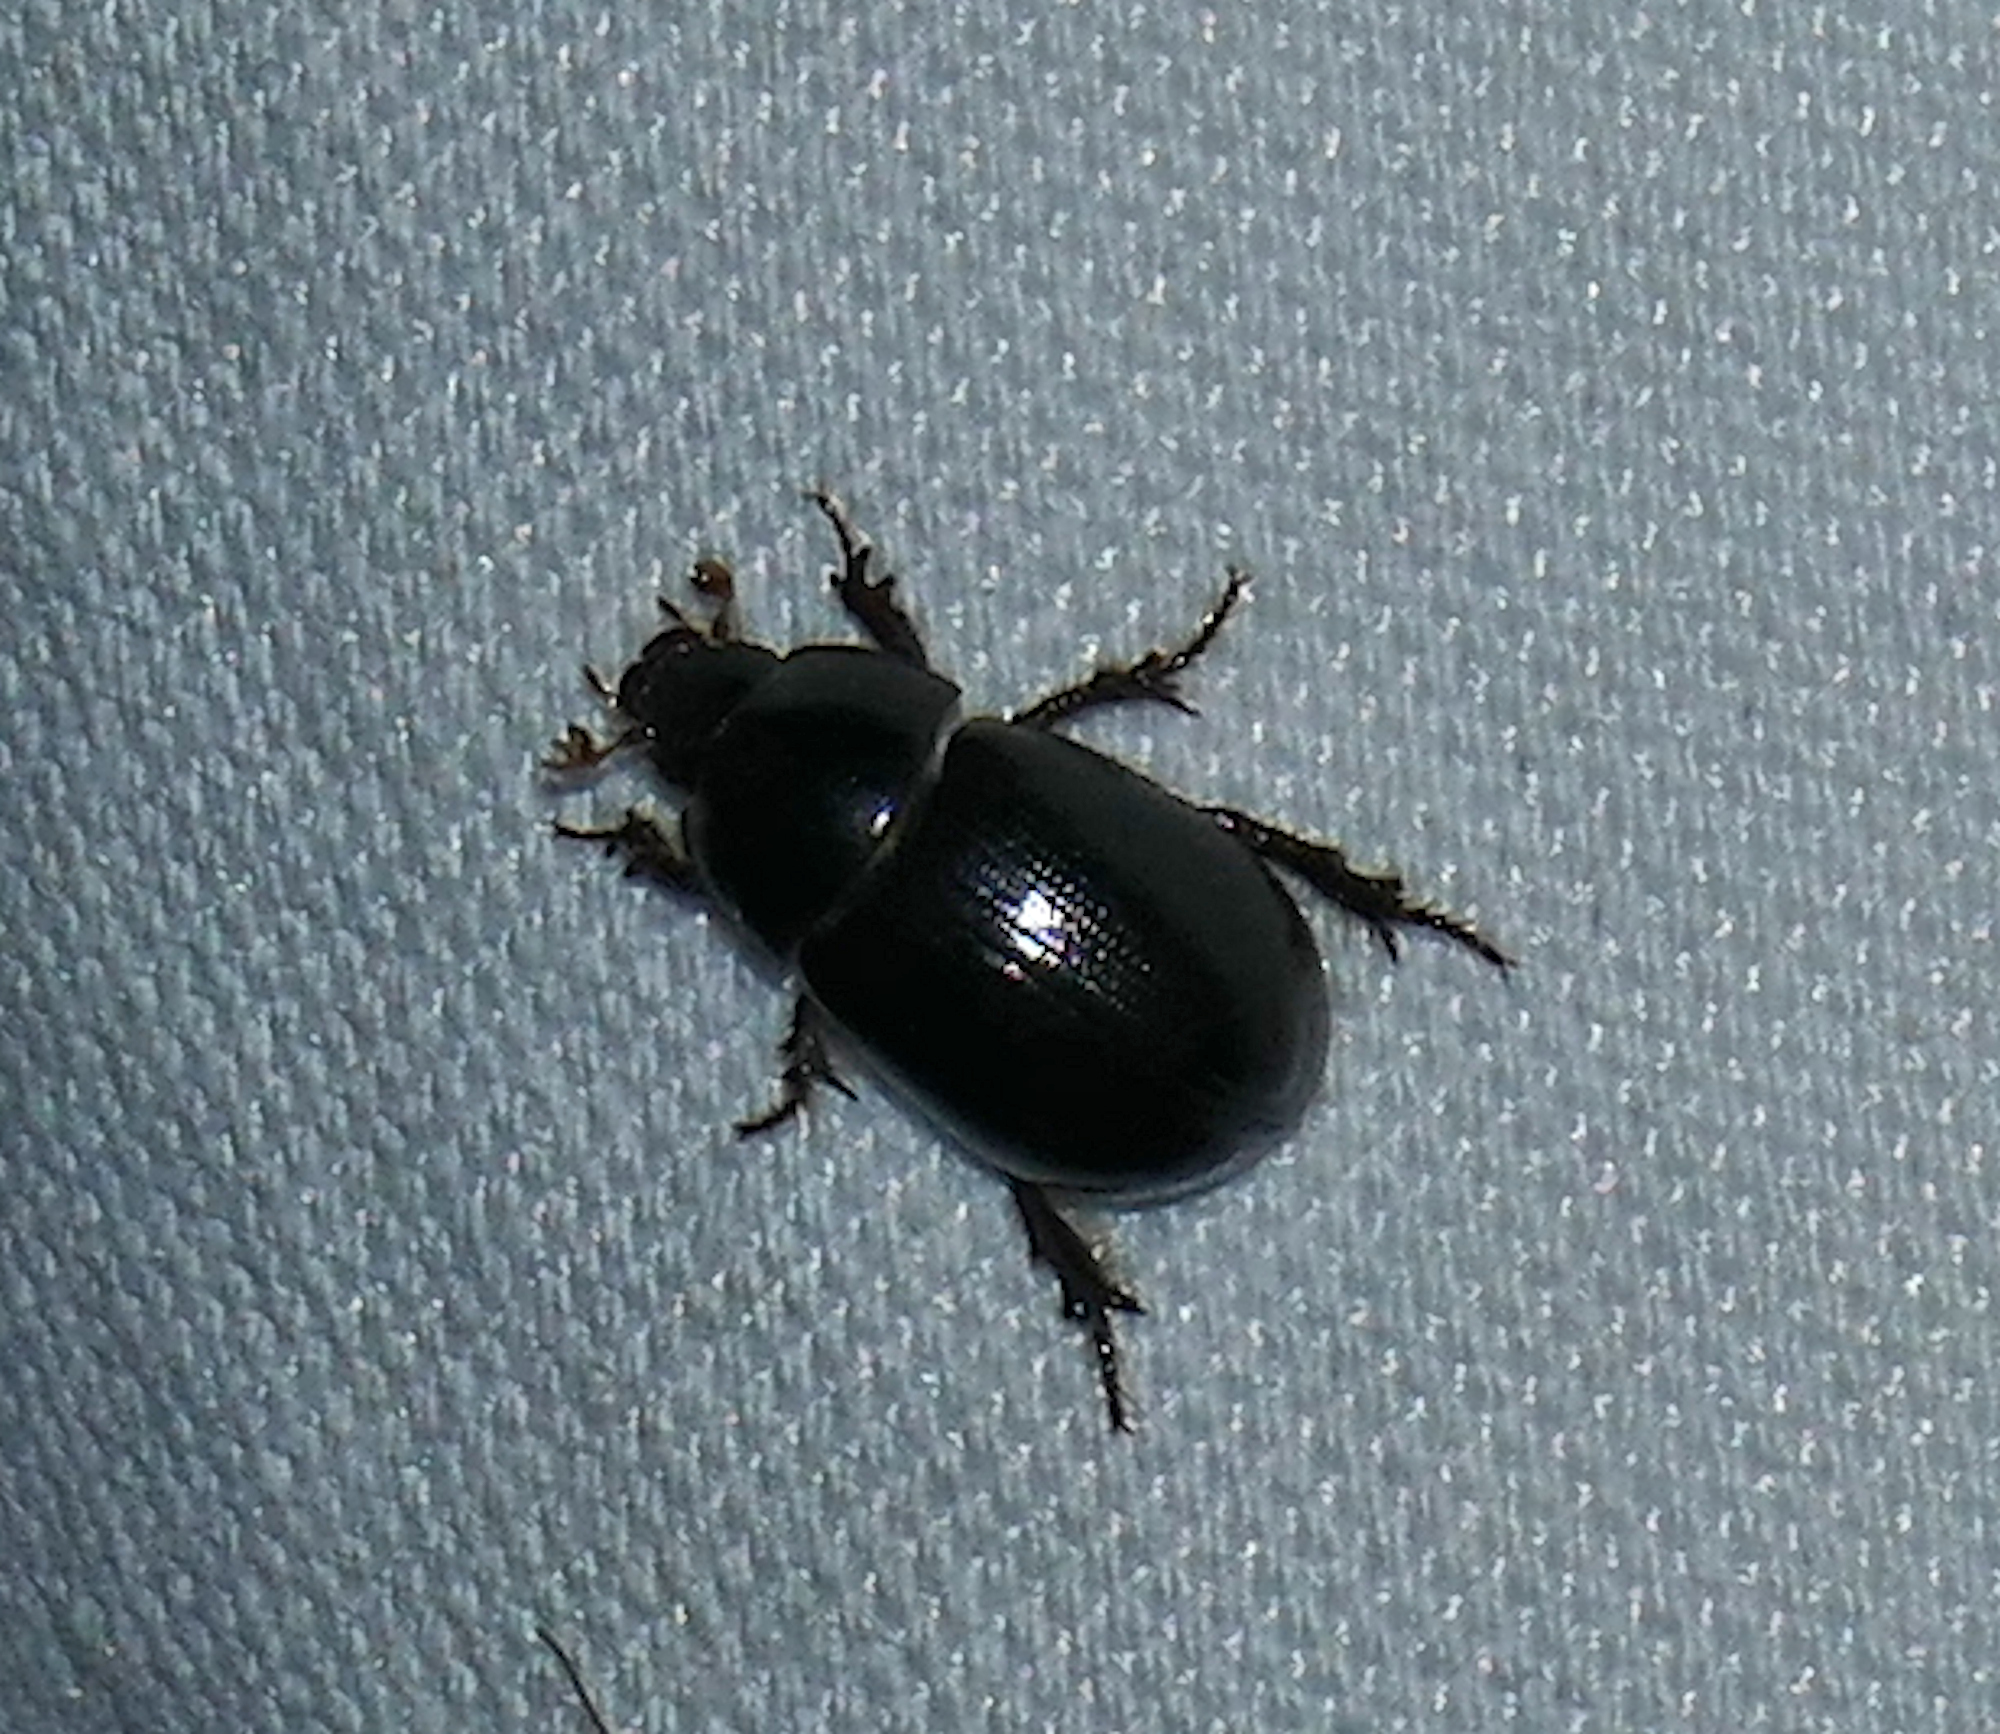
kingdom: Animalia
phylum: Arthropoda
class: Insecta
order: Coleoptera
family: Hybosoridae
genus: Hybosorus
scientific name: Hybosorus illigeri
